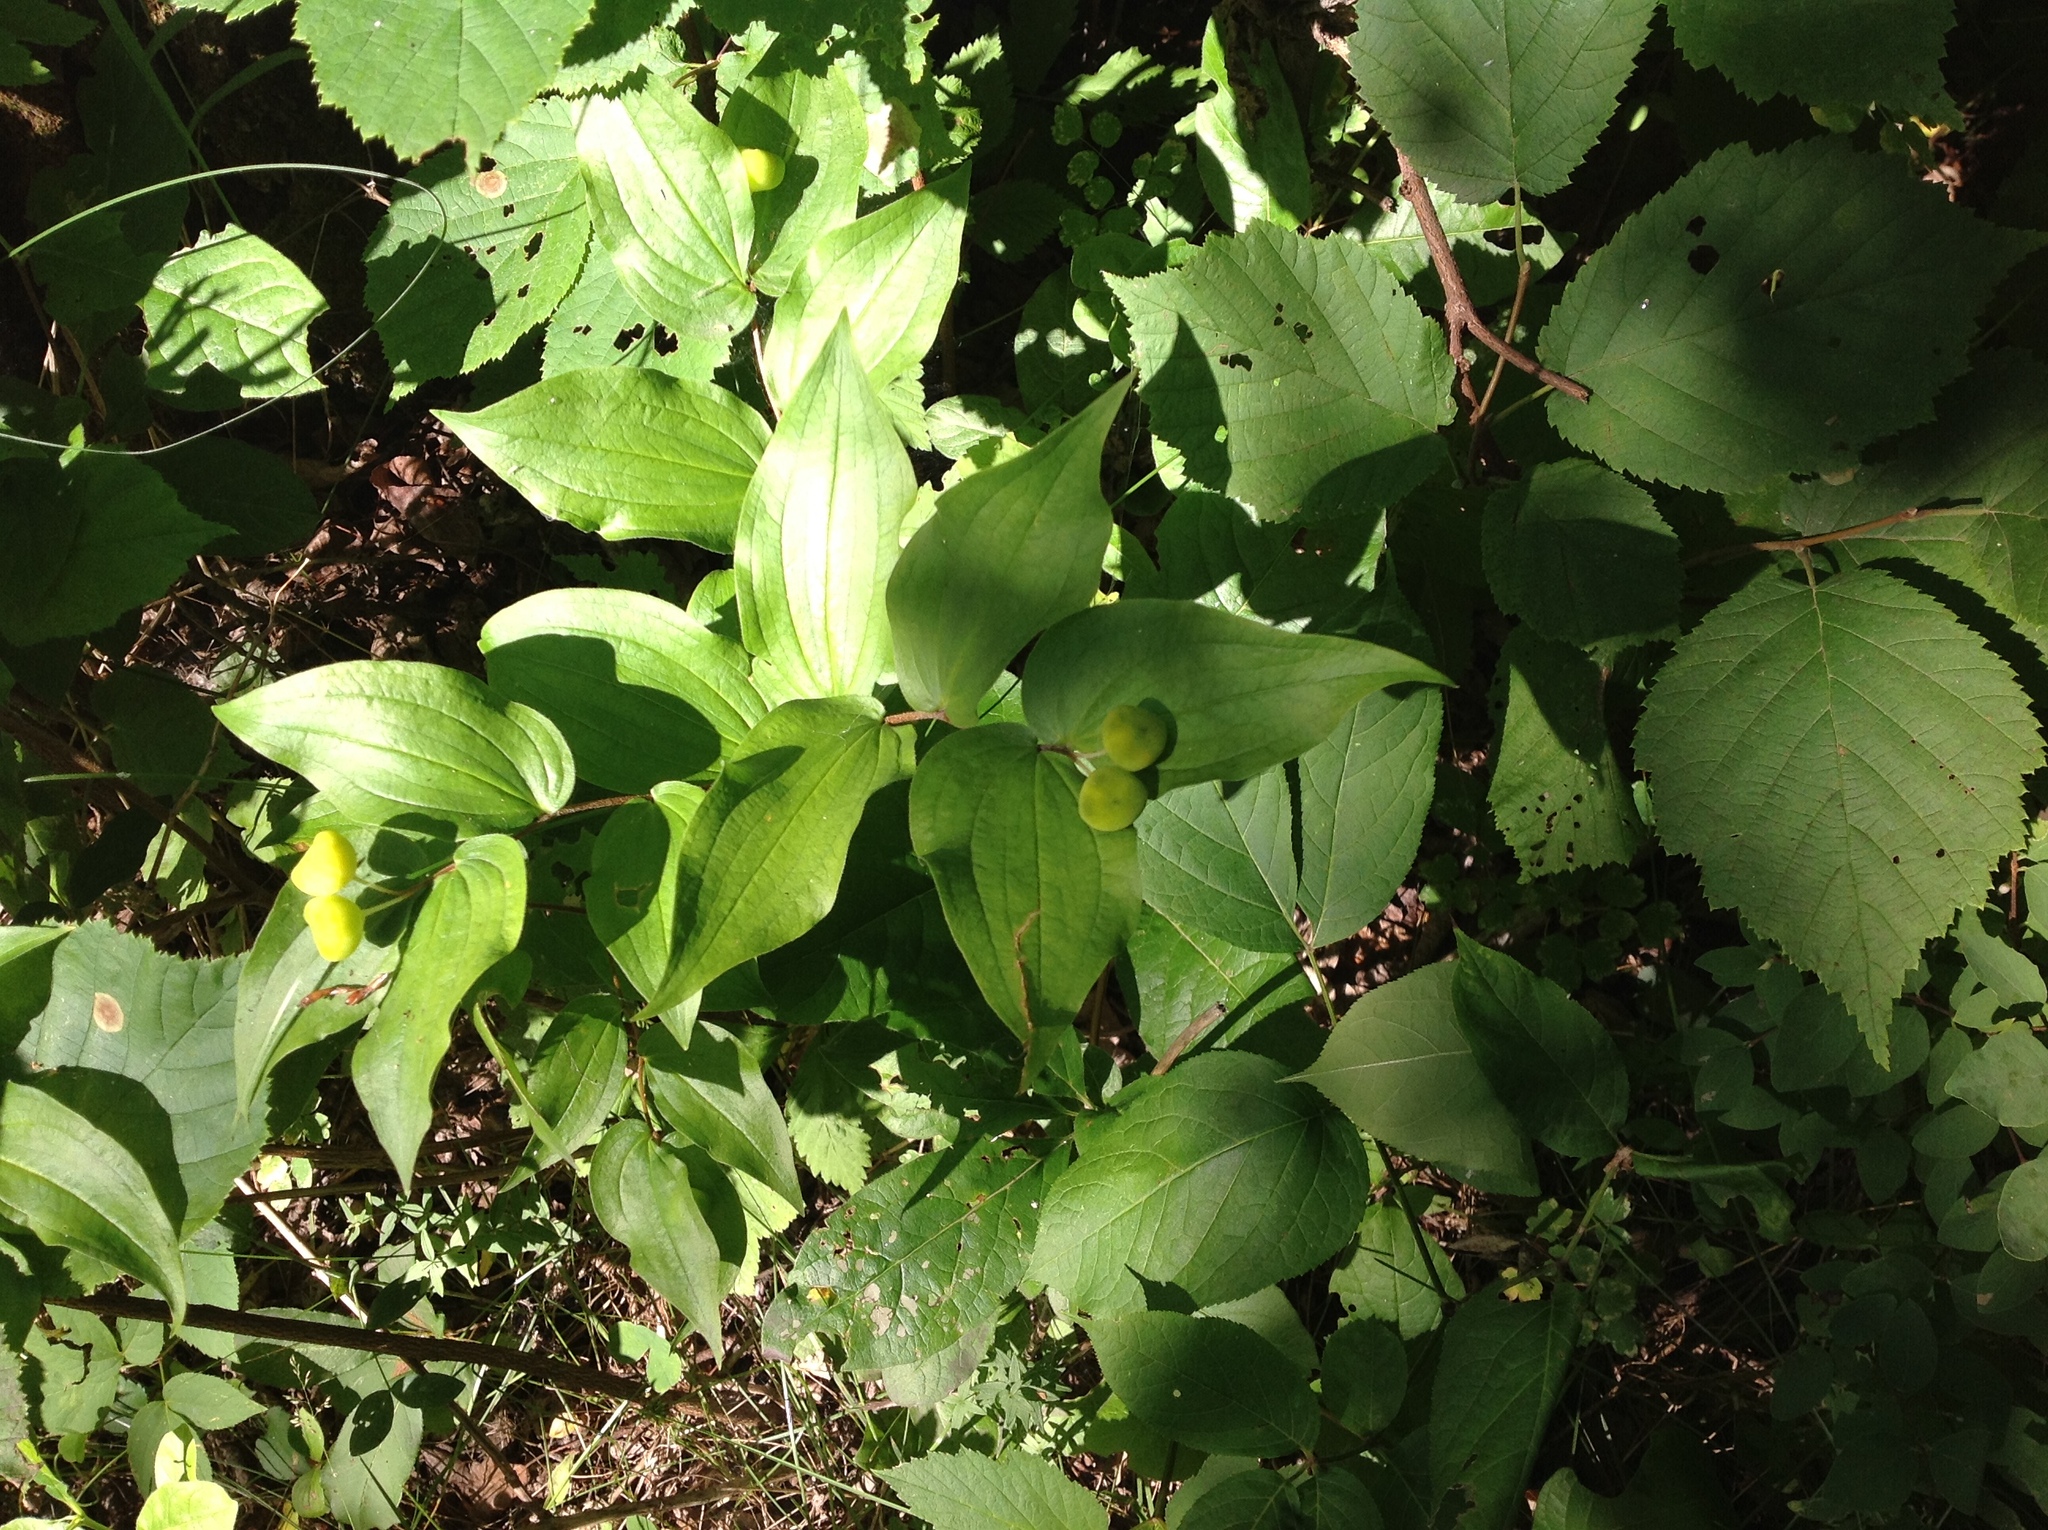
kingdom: Plantae
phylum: Tracheophyta
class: Liliopsida
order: Liliales
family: Liliaceae
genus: Prosartes
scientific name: Prosartes trachycarpa
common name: Rough-fruit fairy-bells
